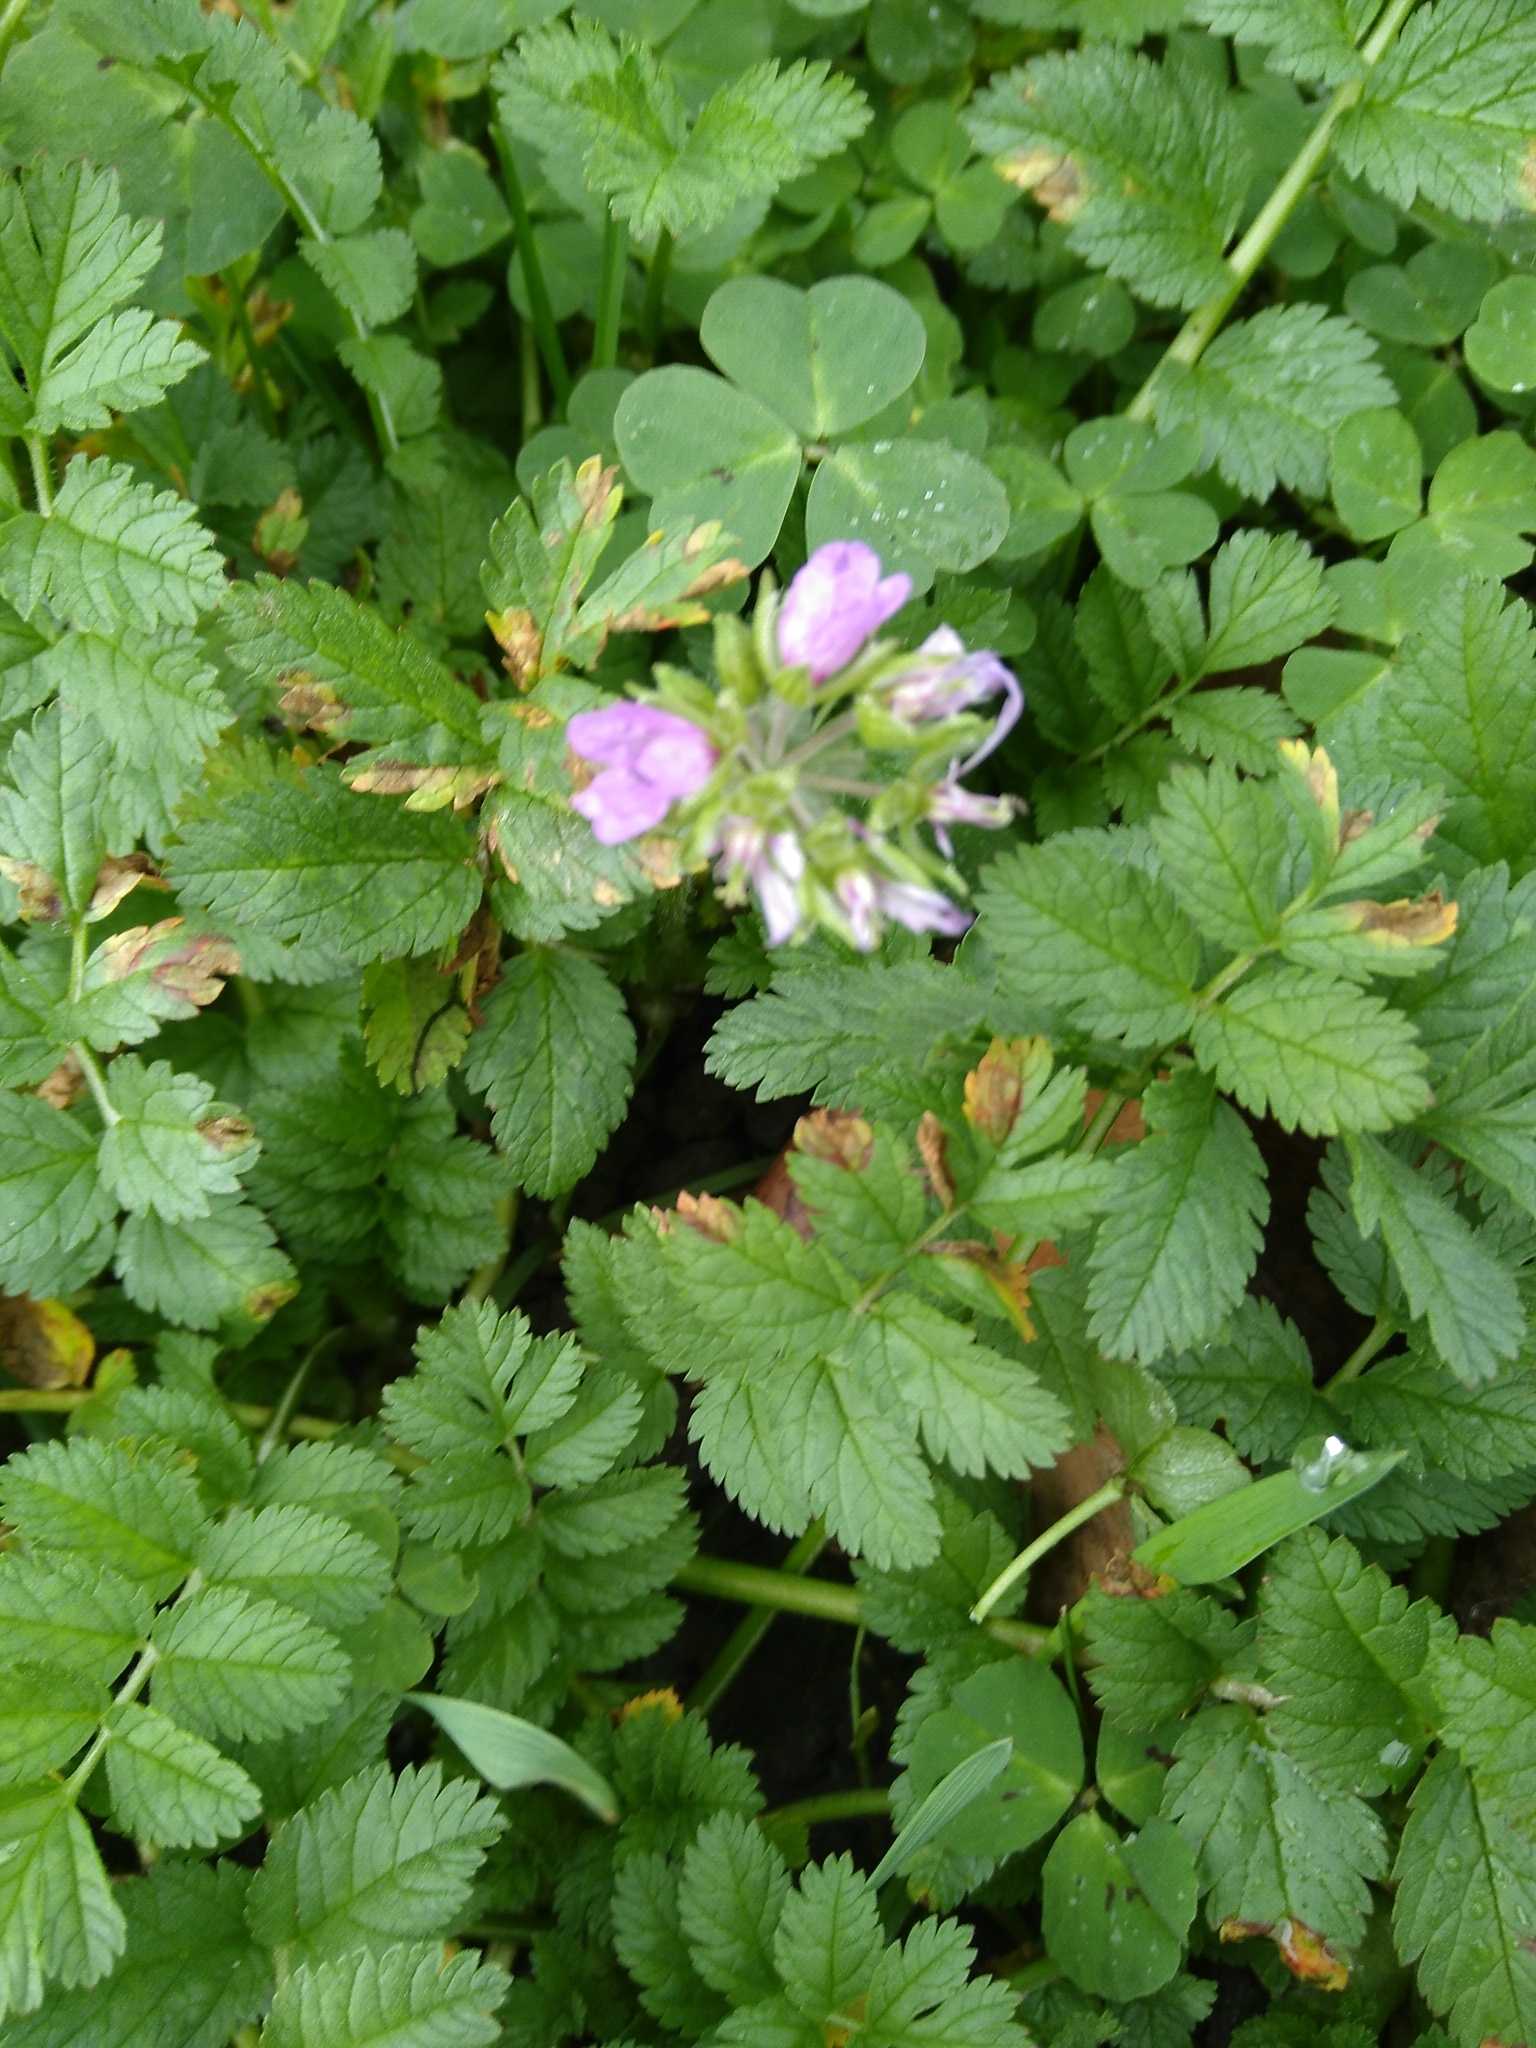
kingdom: Plantae
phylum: Tracheophyta
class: Magnoliopsida
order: Geraniales
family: Geraniaceae
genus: Erodium
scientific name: Erodium moschatum
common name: Musk stork's-bill
